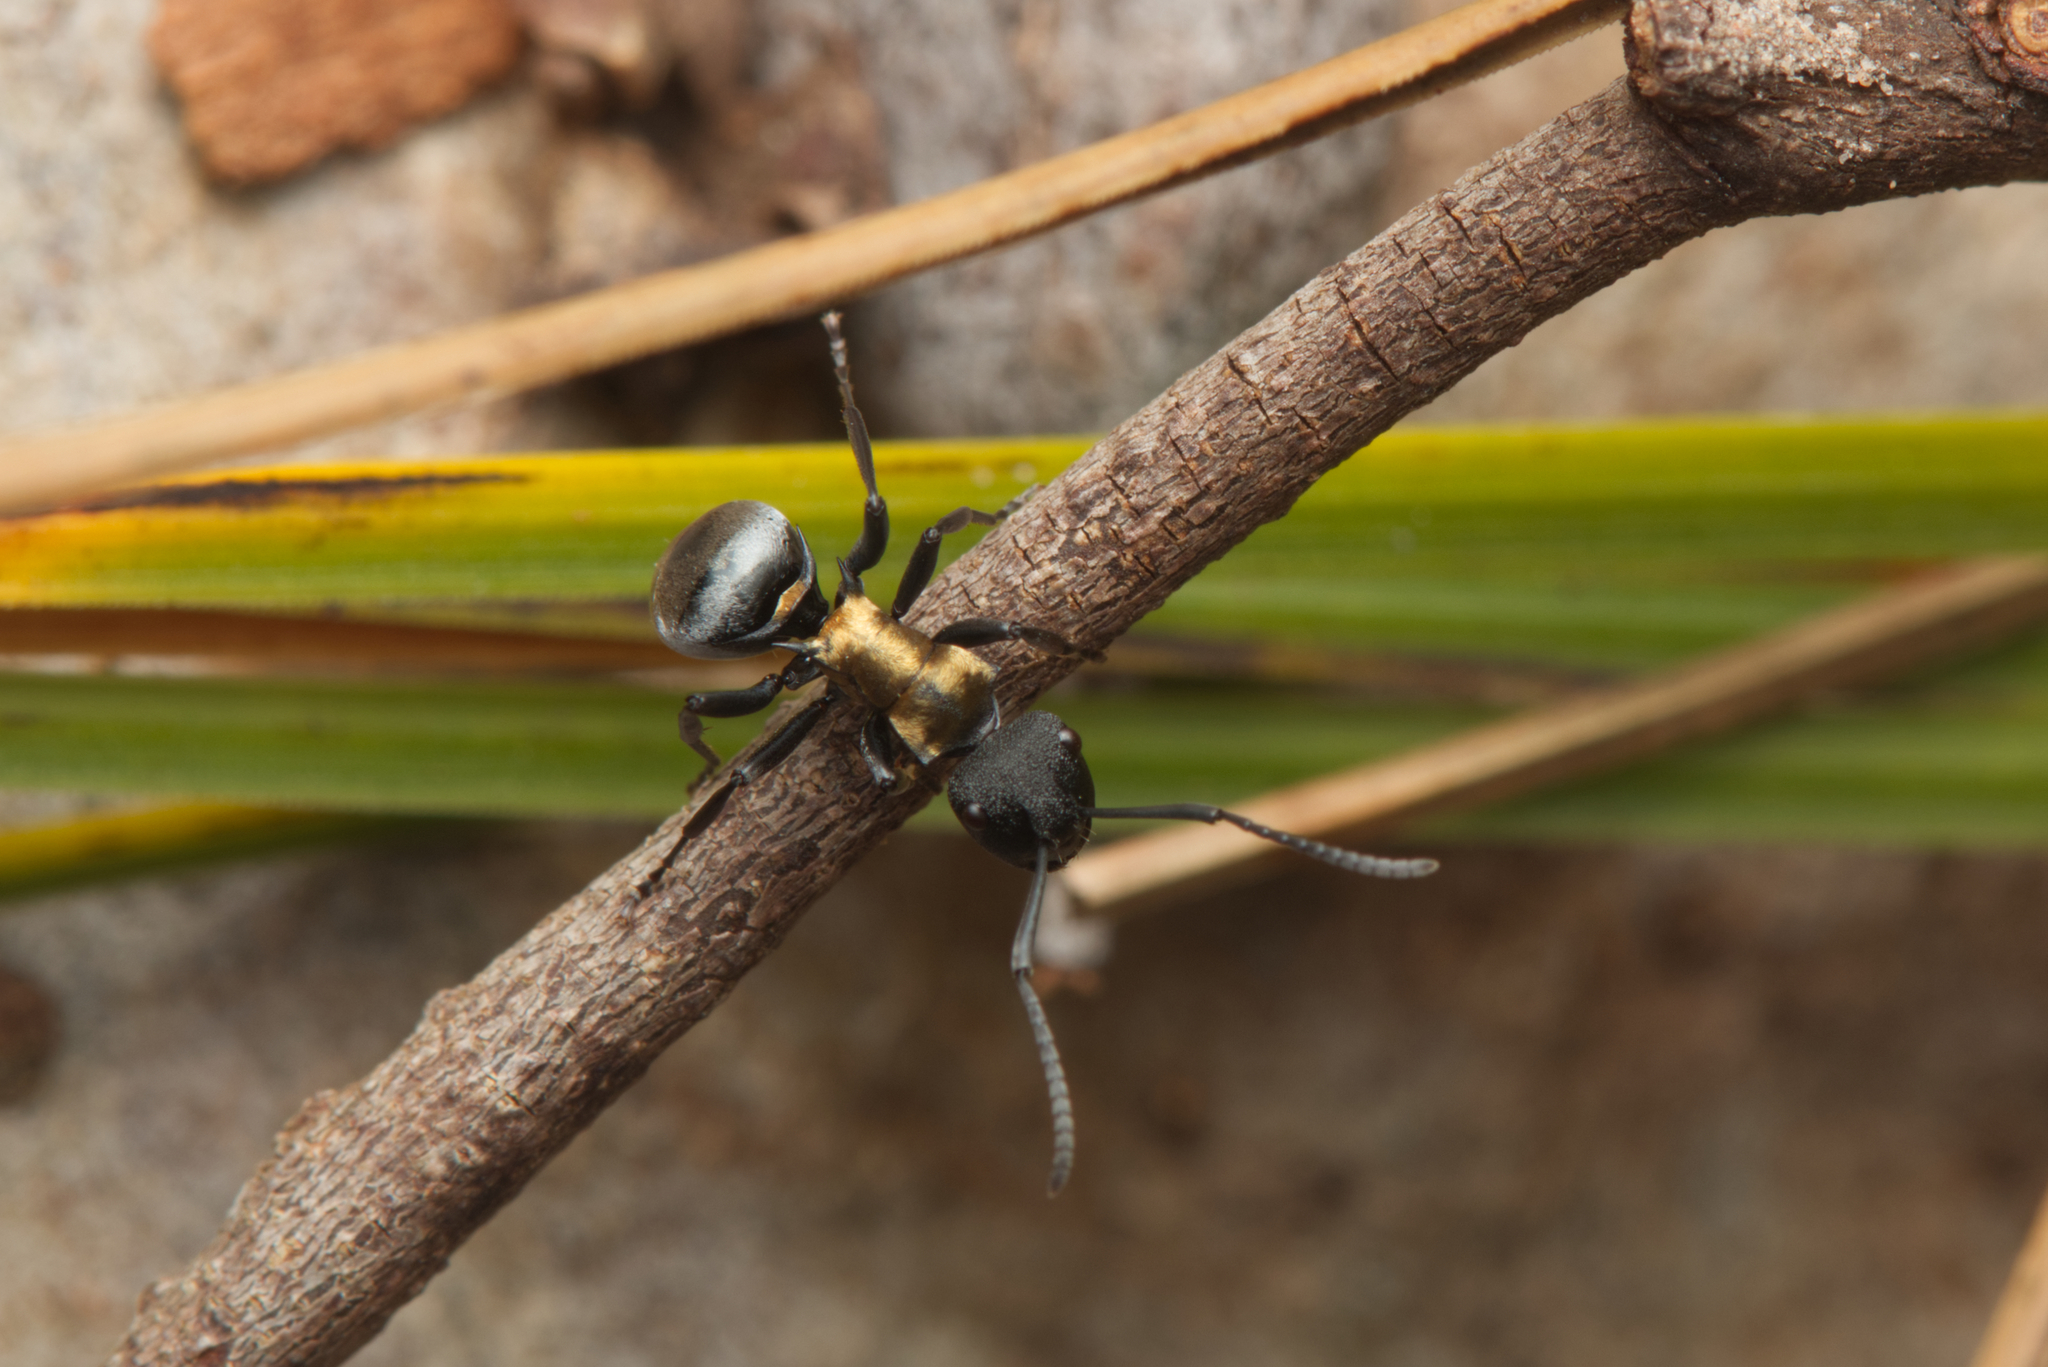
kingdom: Animalia
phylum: Arthropoda
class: Insecta
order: Hymenoptera
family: Formicidae
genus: Polyrhachis
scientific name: Polyrhachis ornata
